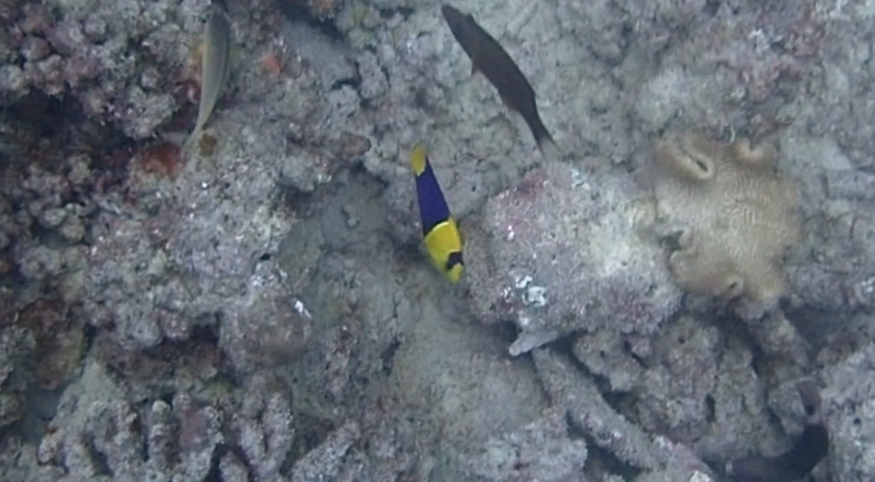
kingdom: Animalia
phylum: Chordata
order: Perciformes
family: Pomacanthidae
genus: Centropyge
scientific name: Centropyge bicolor
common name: Bicolor angelfish
